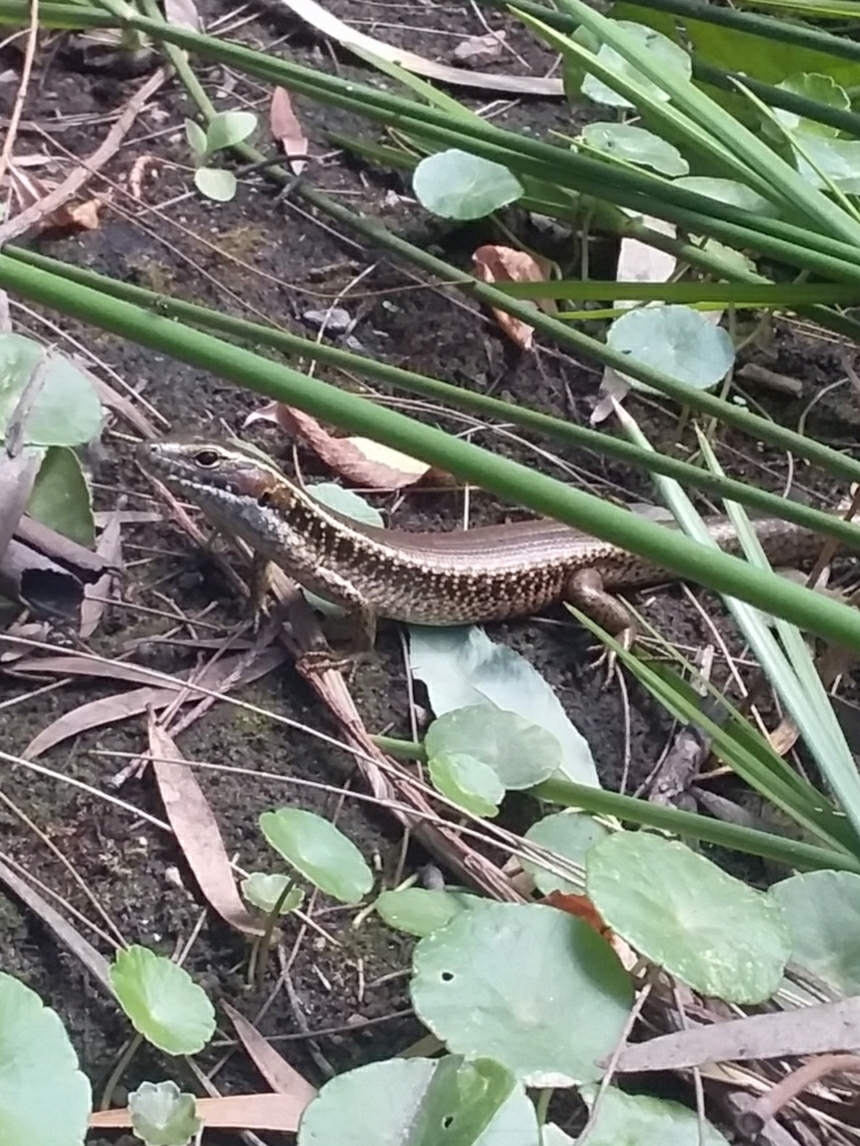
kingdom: Animalia
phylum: Chordata
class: Squamata
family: Scincidae
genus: Eulamprus
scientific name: Eulamprus quoyii
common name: Eastern water skink
